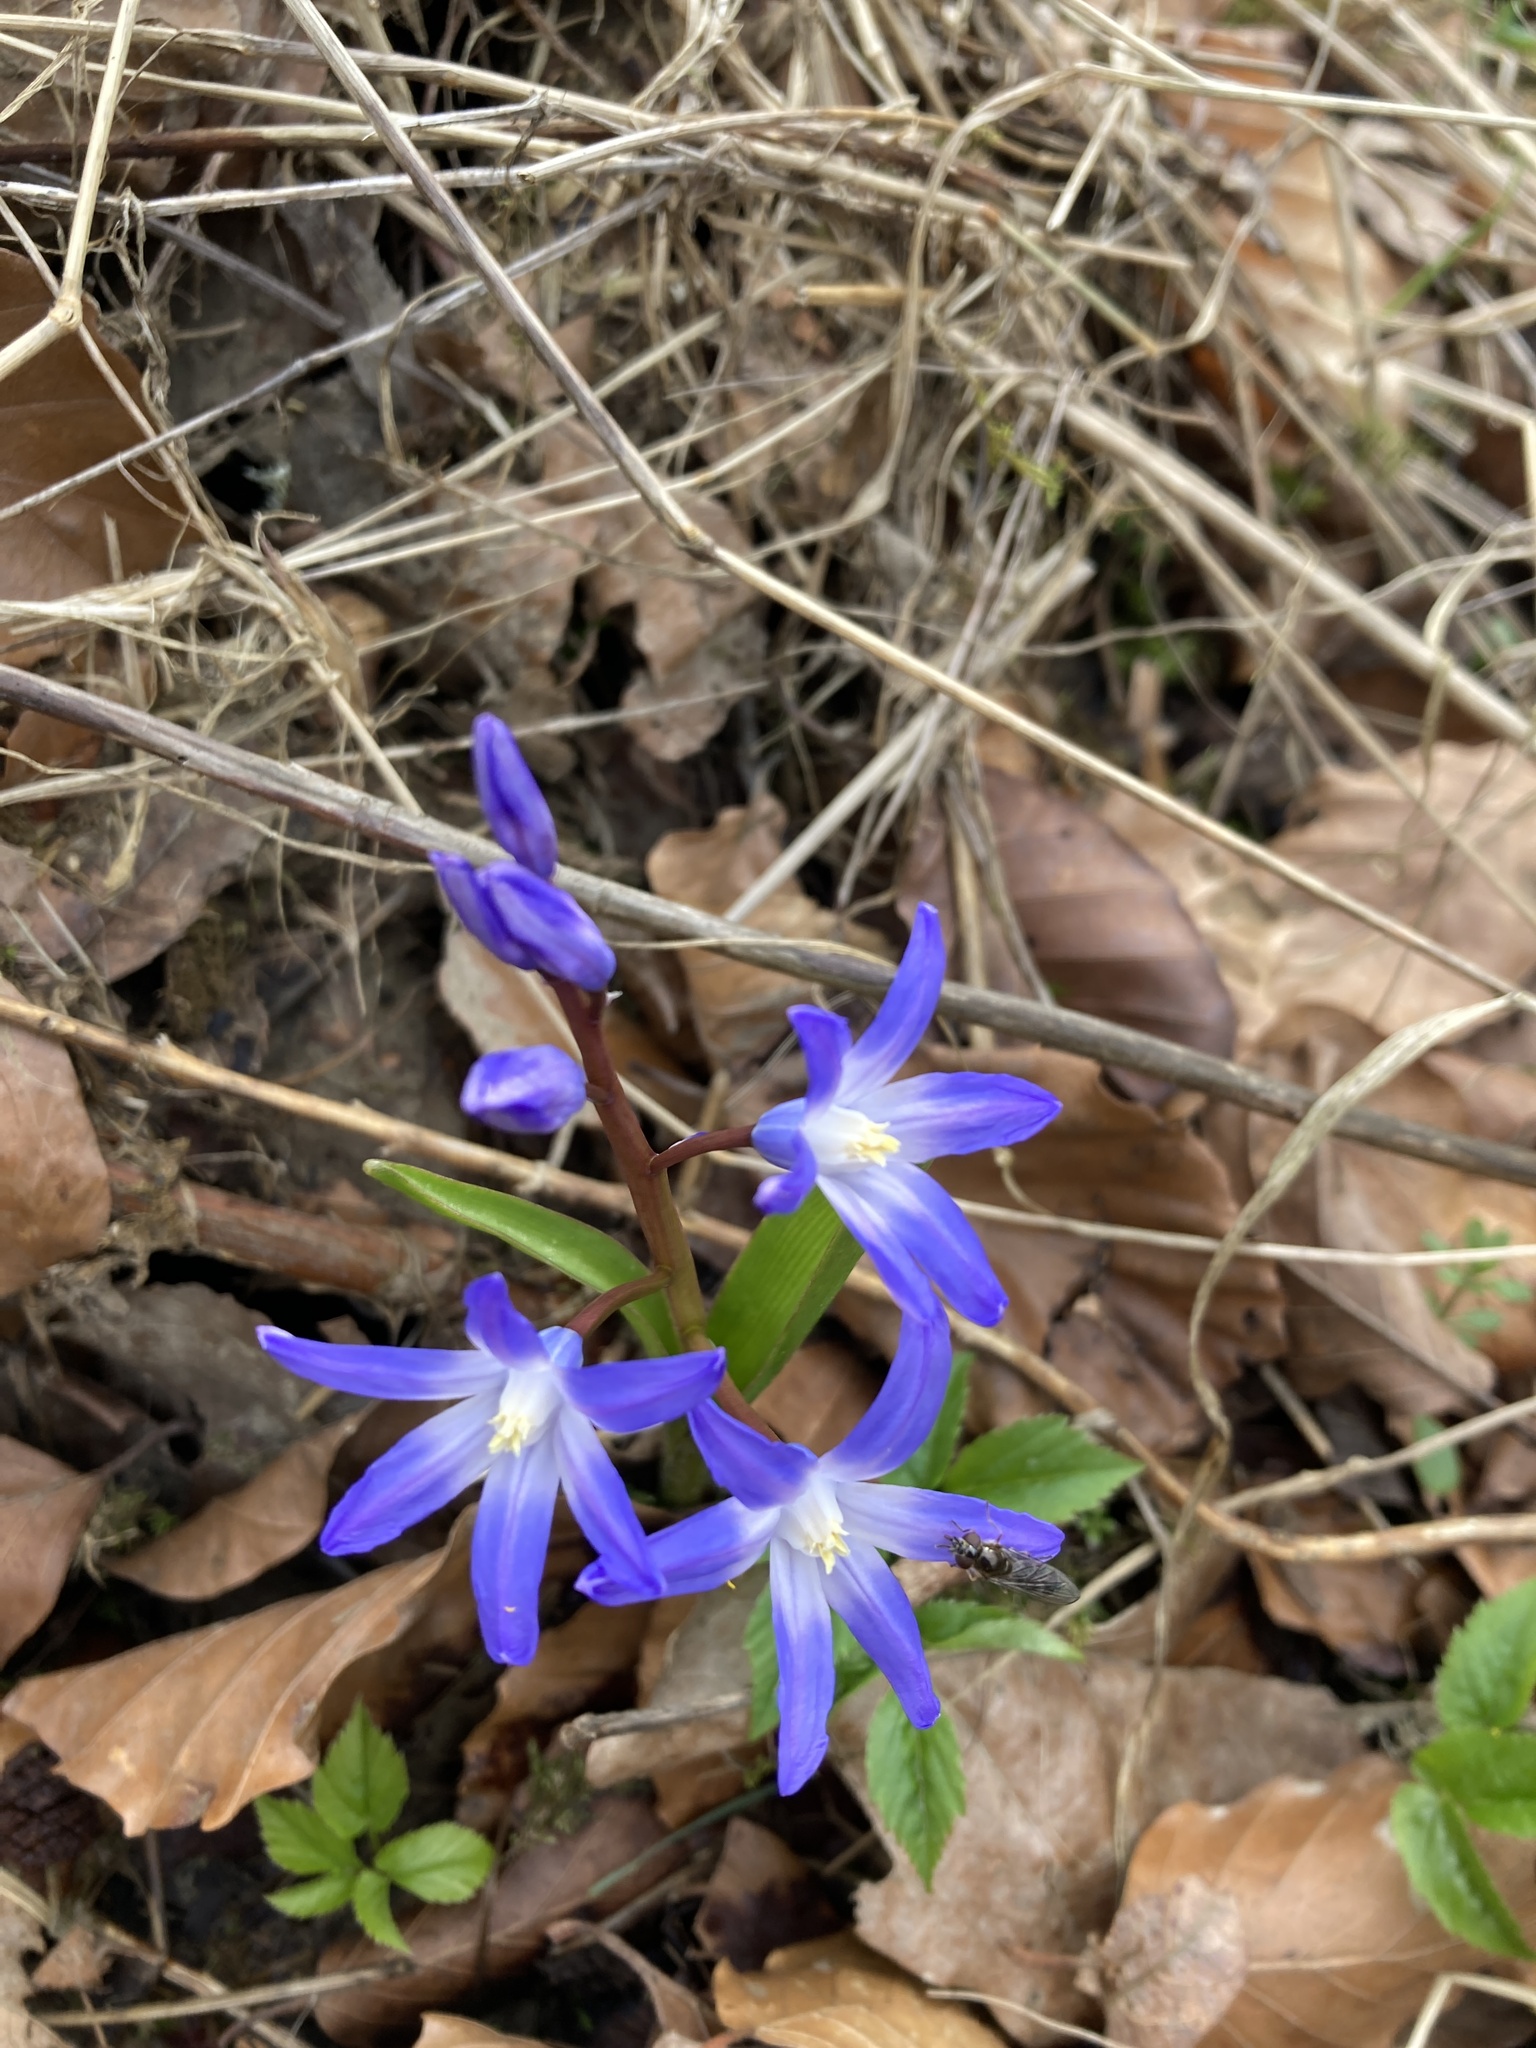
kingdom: Plantae
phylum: Tracheophyta
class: Liliopsida
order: Asparagales
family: Asparagaceae
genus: Scilla
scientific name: Scilla forbesii
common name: Glory-of-the-snow
